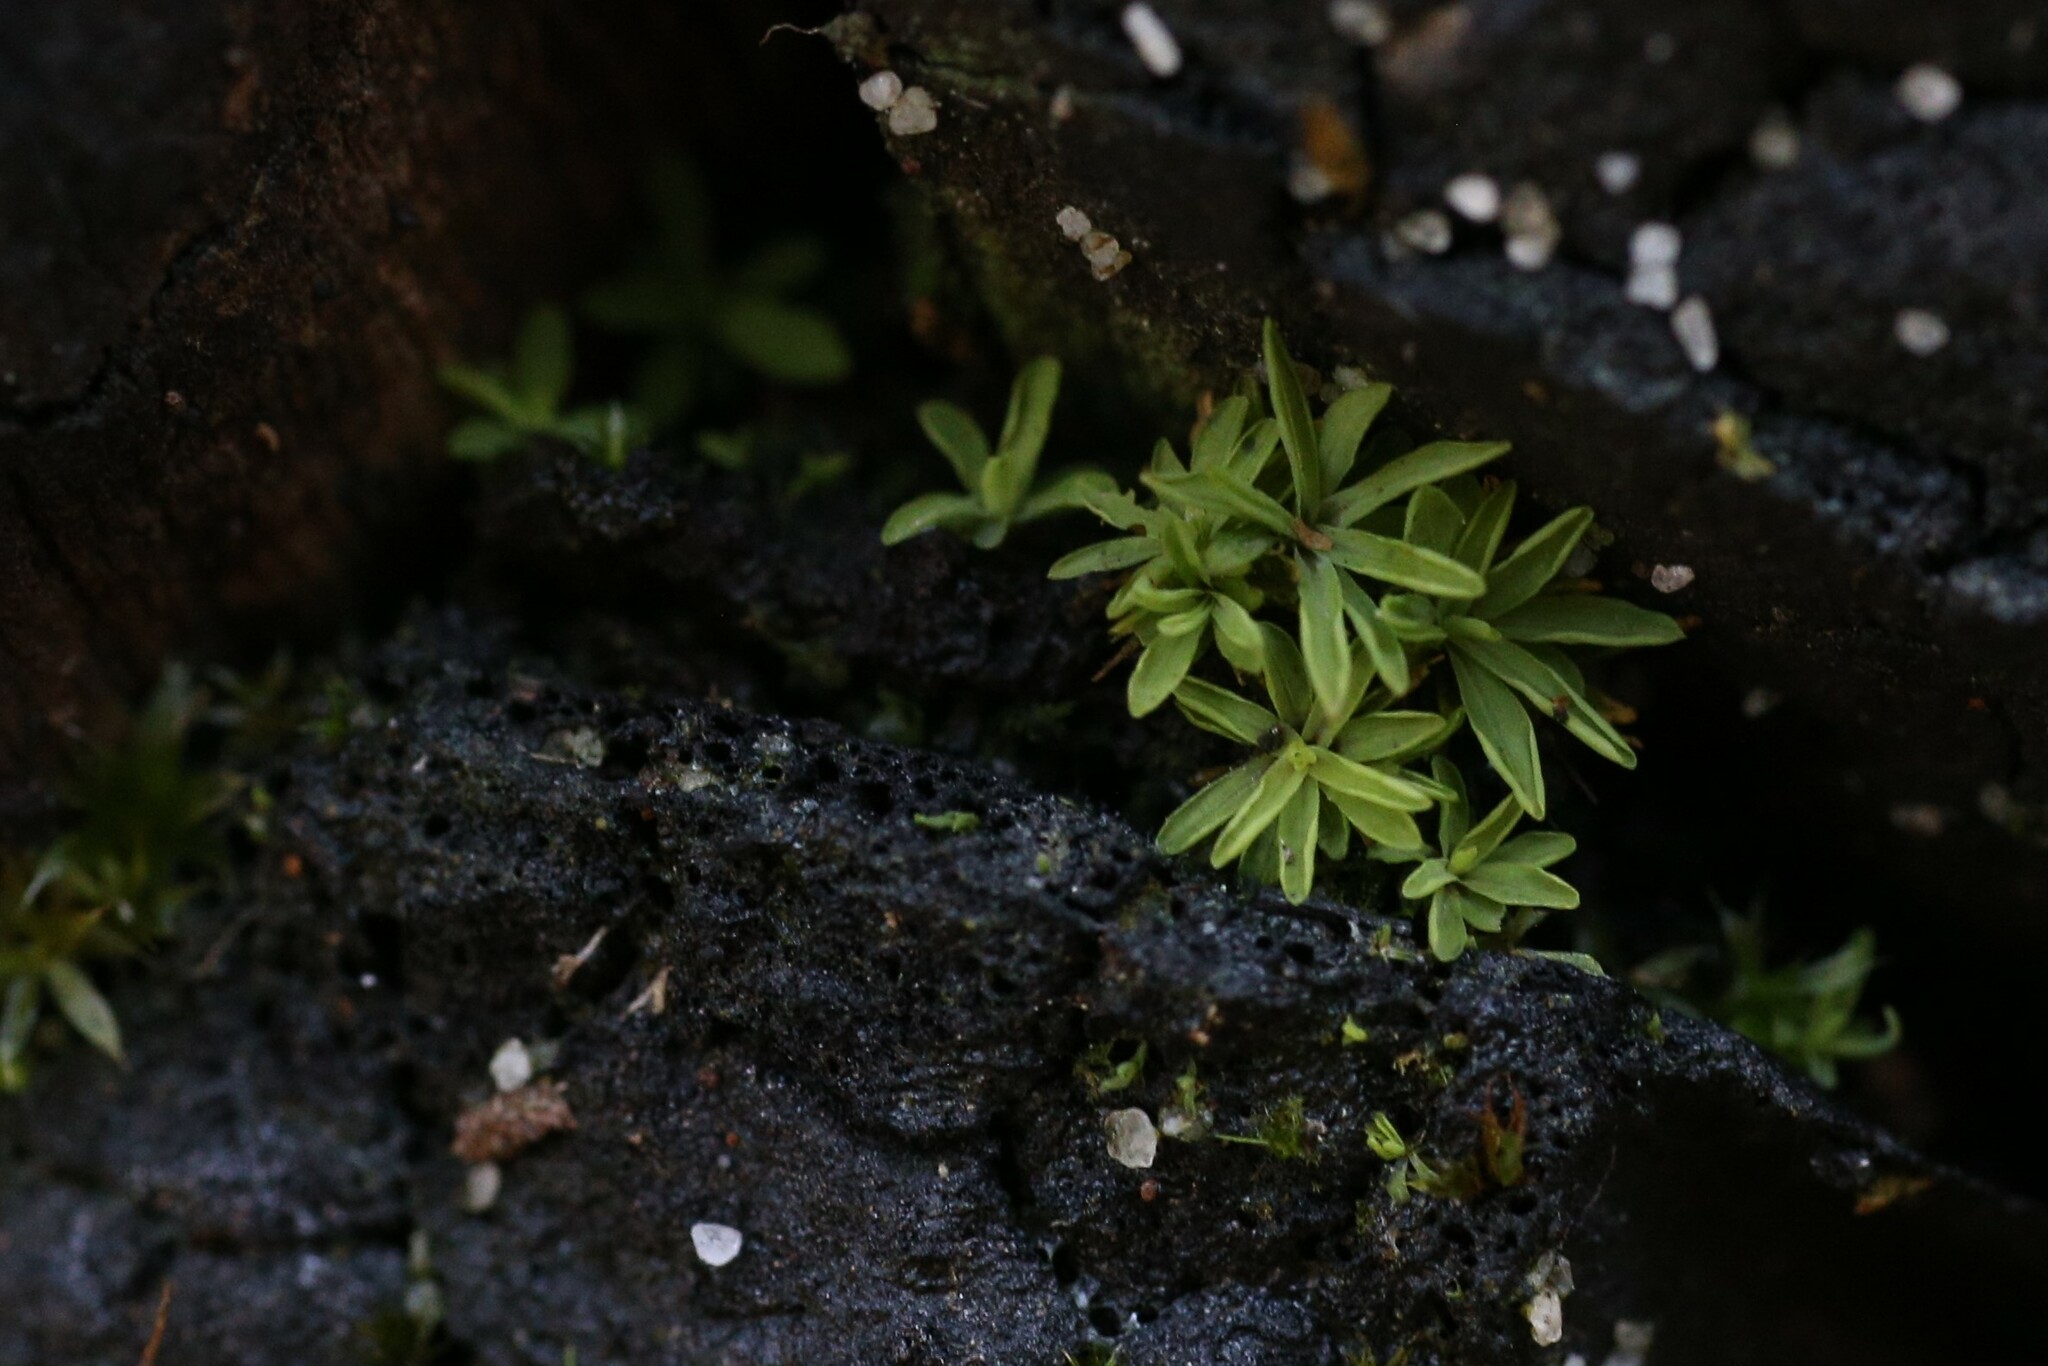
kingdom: Plantae
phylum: Bryophyta
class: Bryopsida
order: Pottiales
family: Pottiaceae
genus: Calymperastrum
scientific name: Calymperastrum latifolium
